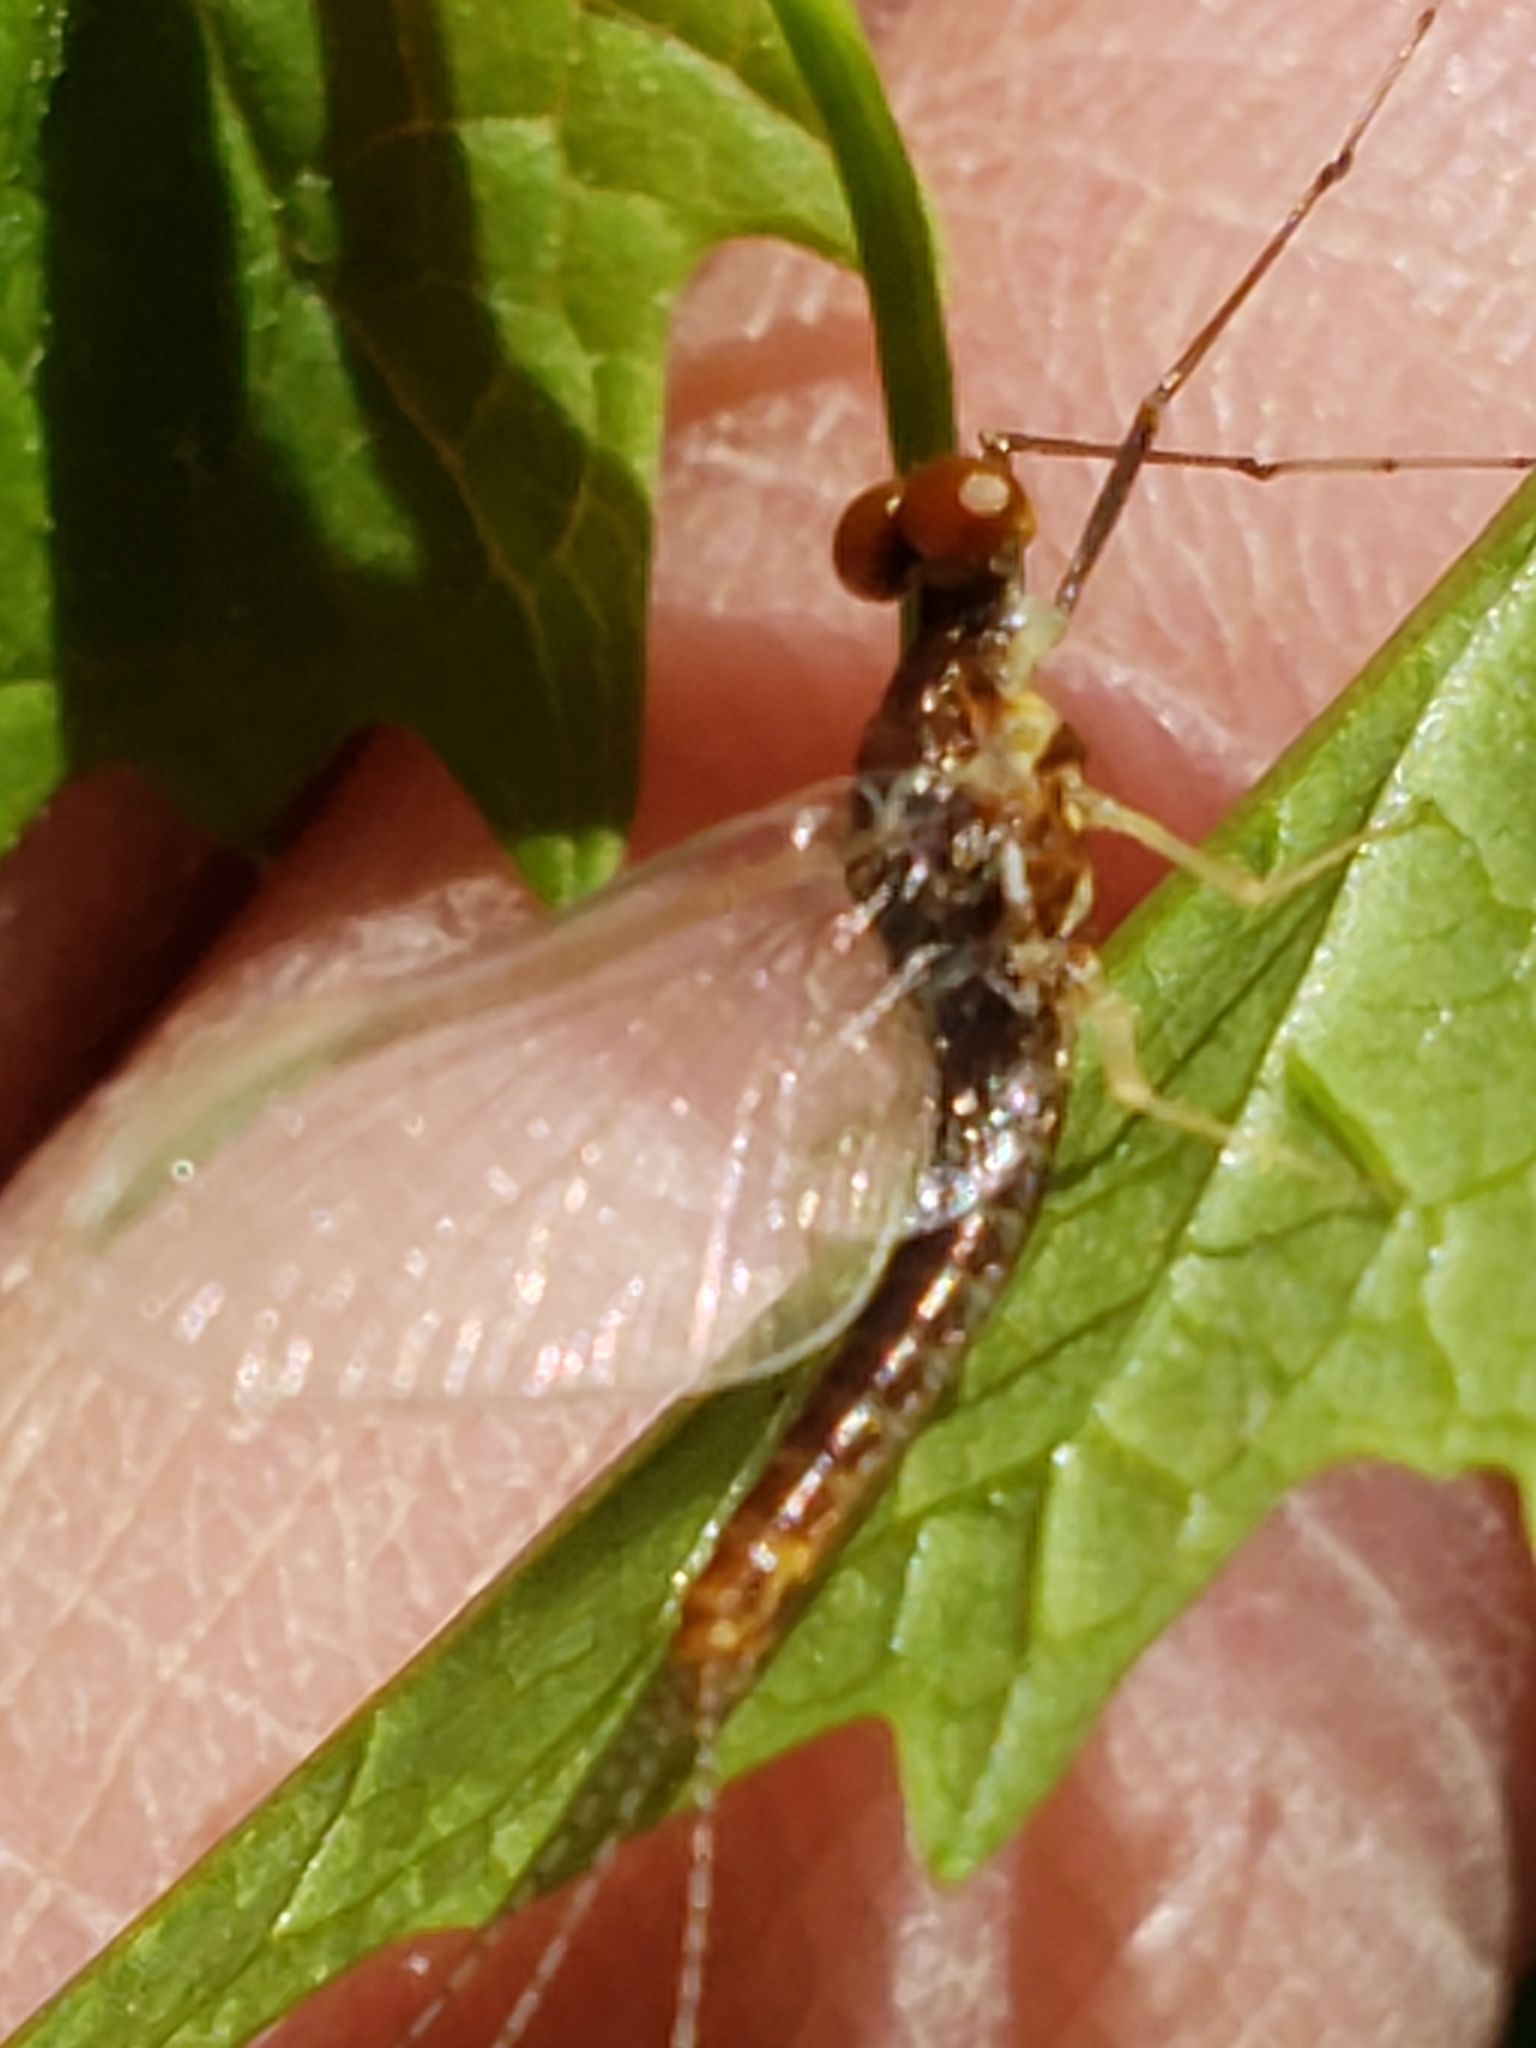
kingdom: Animalia
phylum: Arthropoda
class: Insecta
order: Ephemeroptera
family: Ephemerellidae
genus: Ephemerella
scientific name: Ephemerella subvaria
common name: Dark hendrickson
